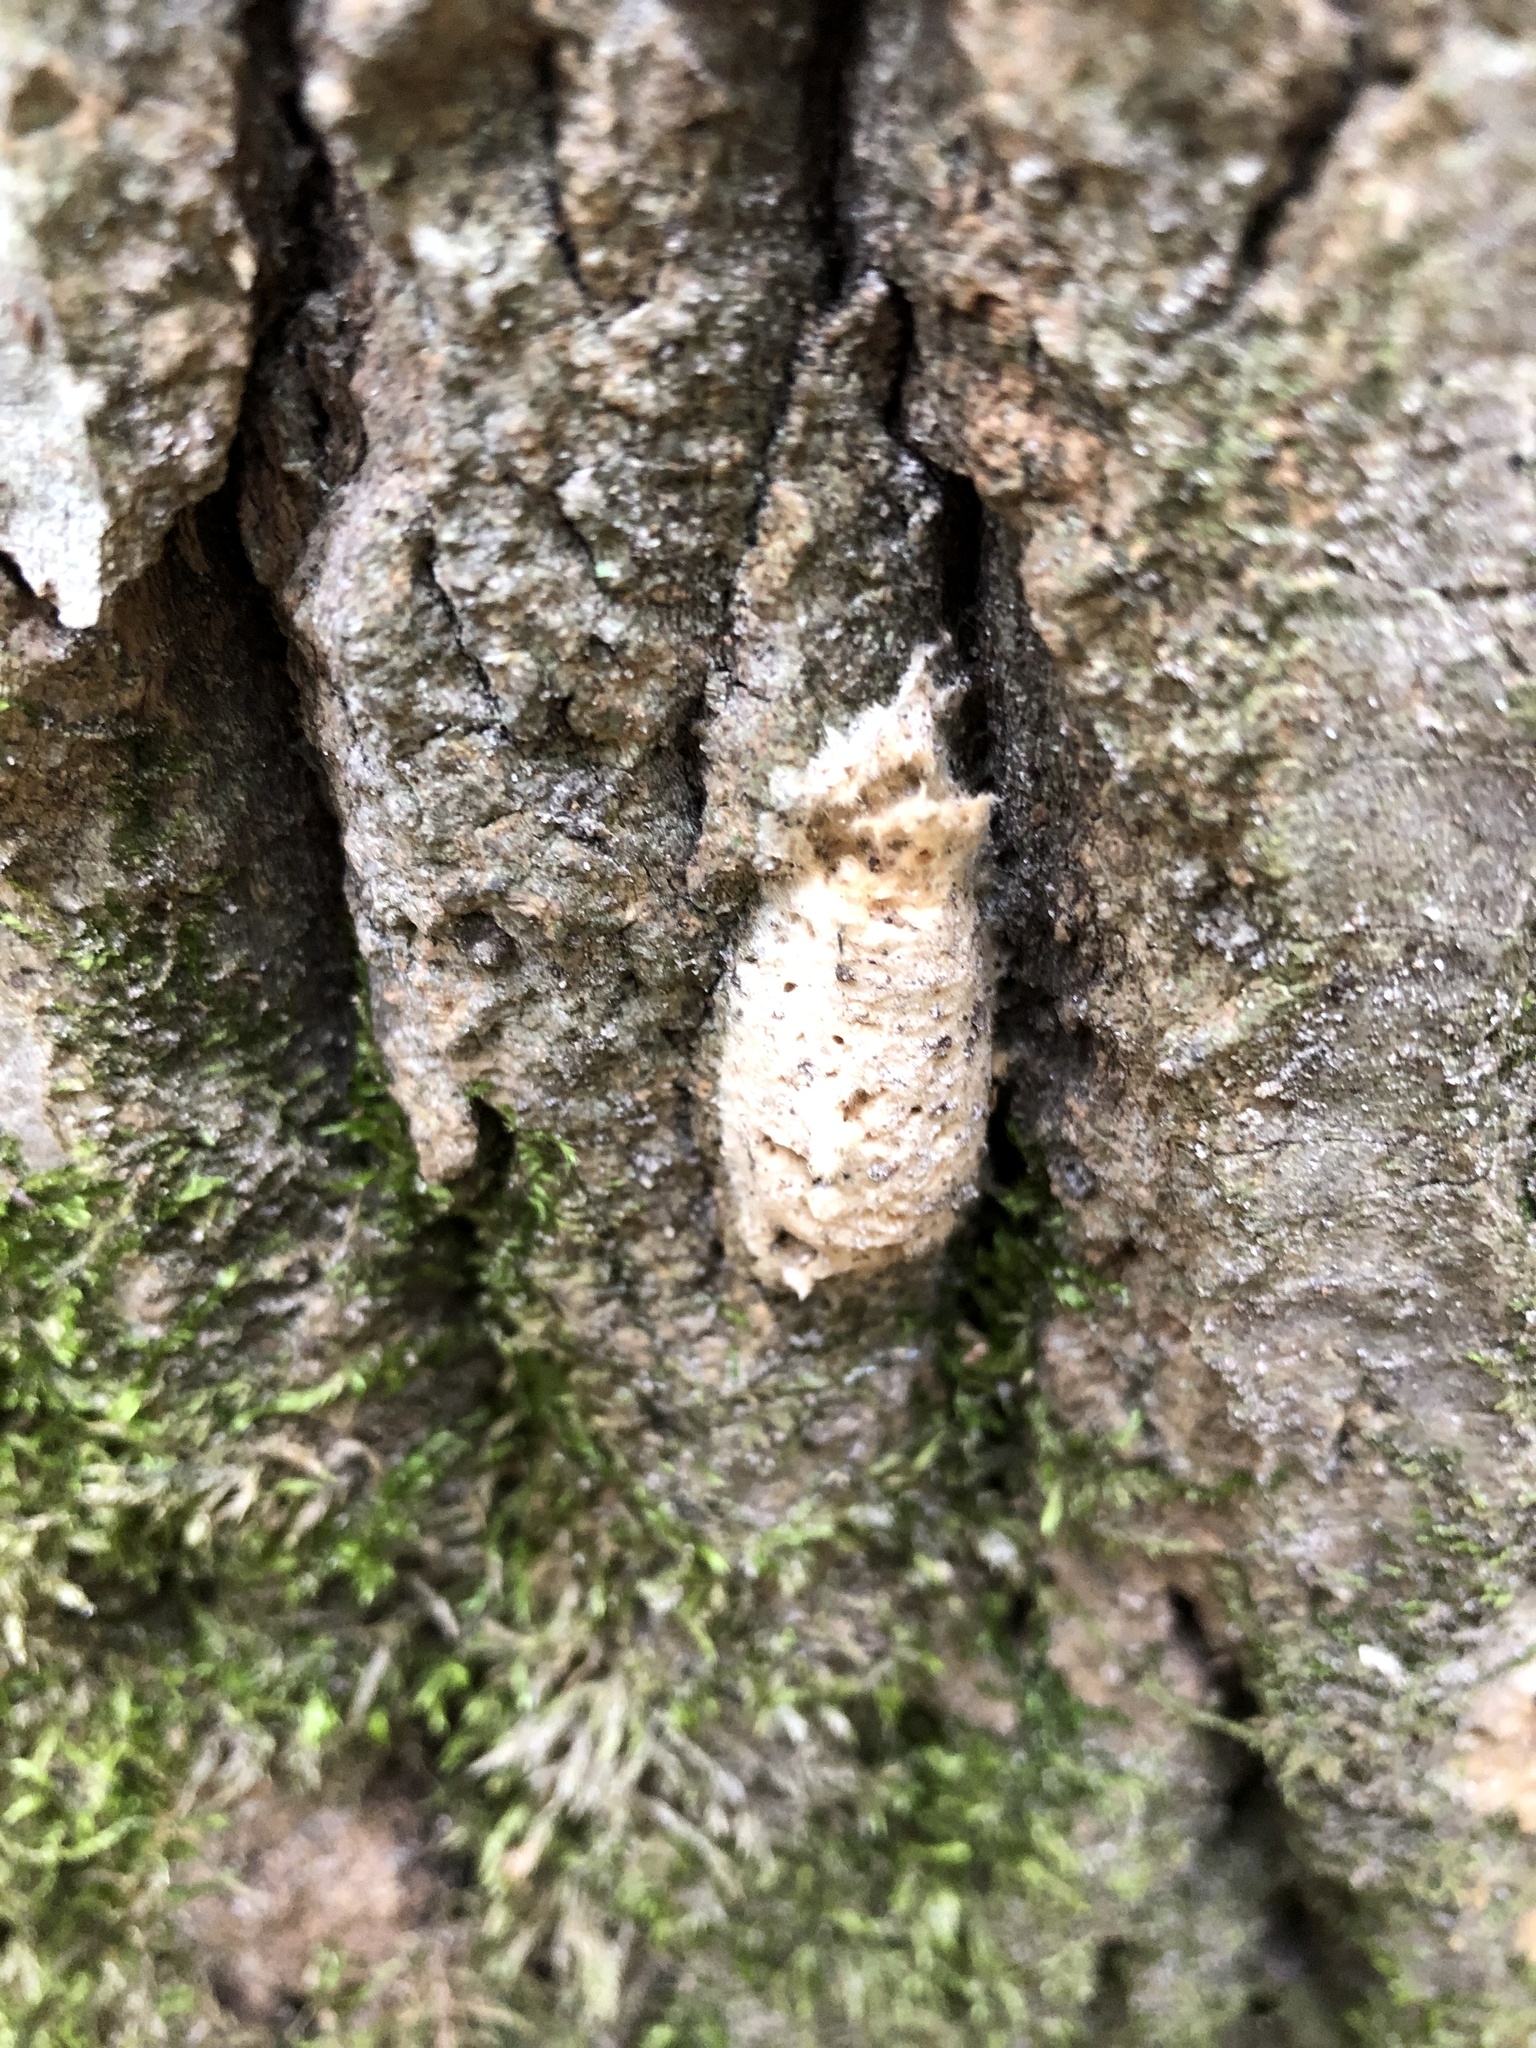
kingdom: Animalia
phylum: Arthropoda
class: Insecta
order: Lepidoptera
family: Erebidae
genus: Lymantria
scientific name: Lymantria dispar
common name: Gypsy moth
